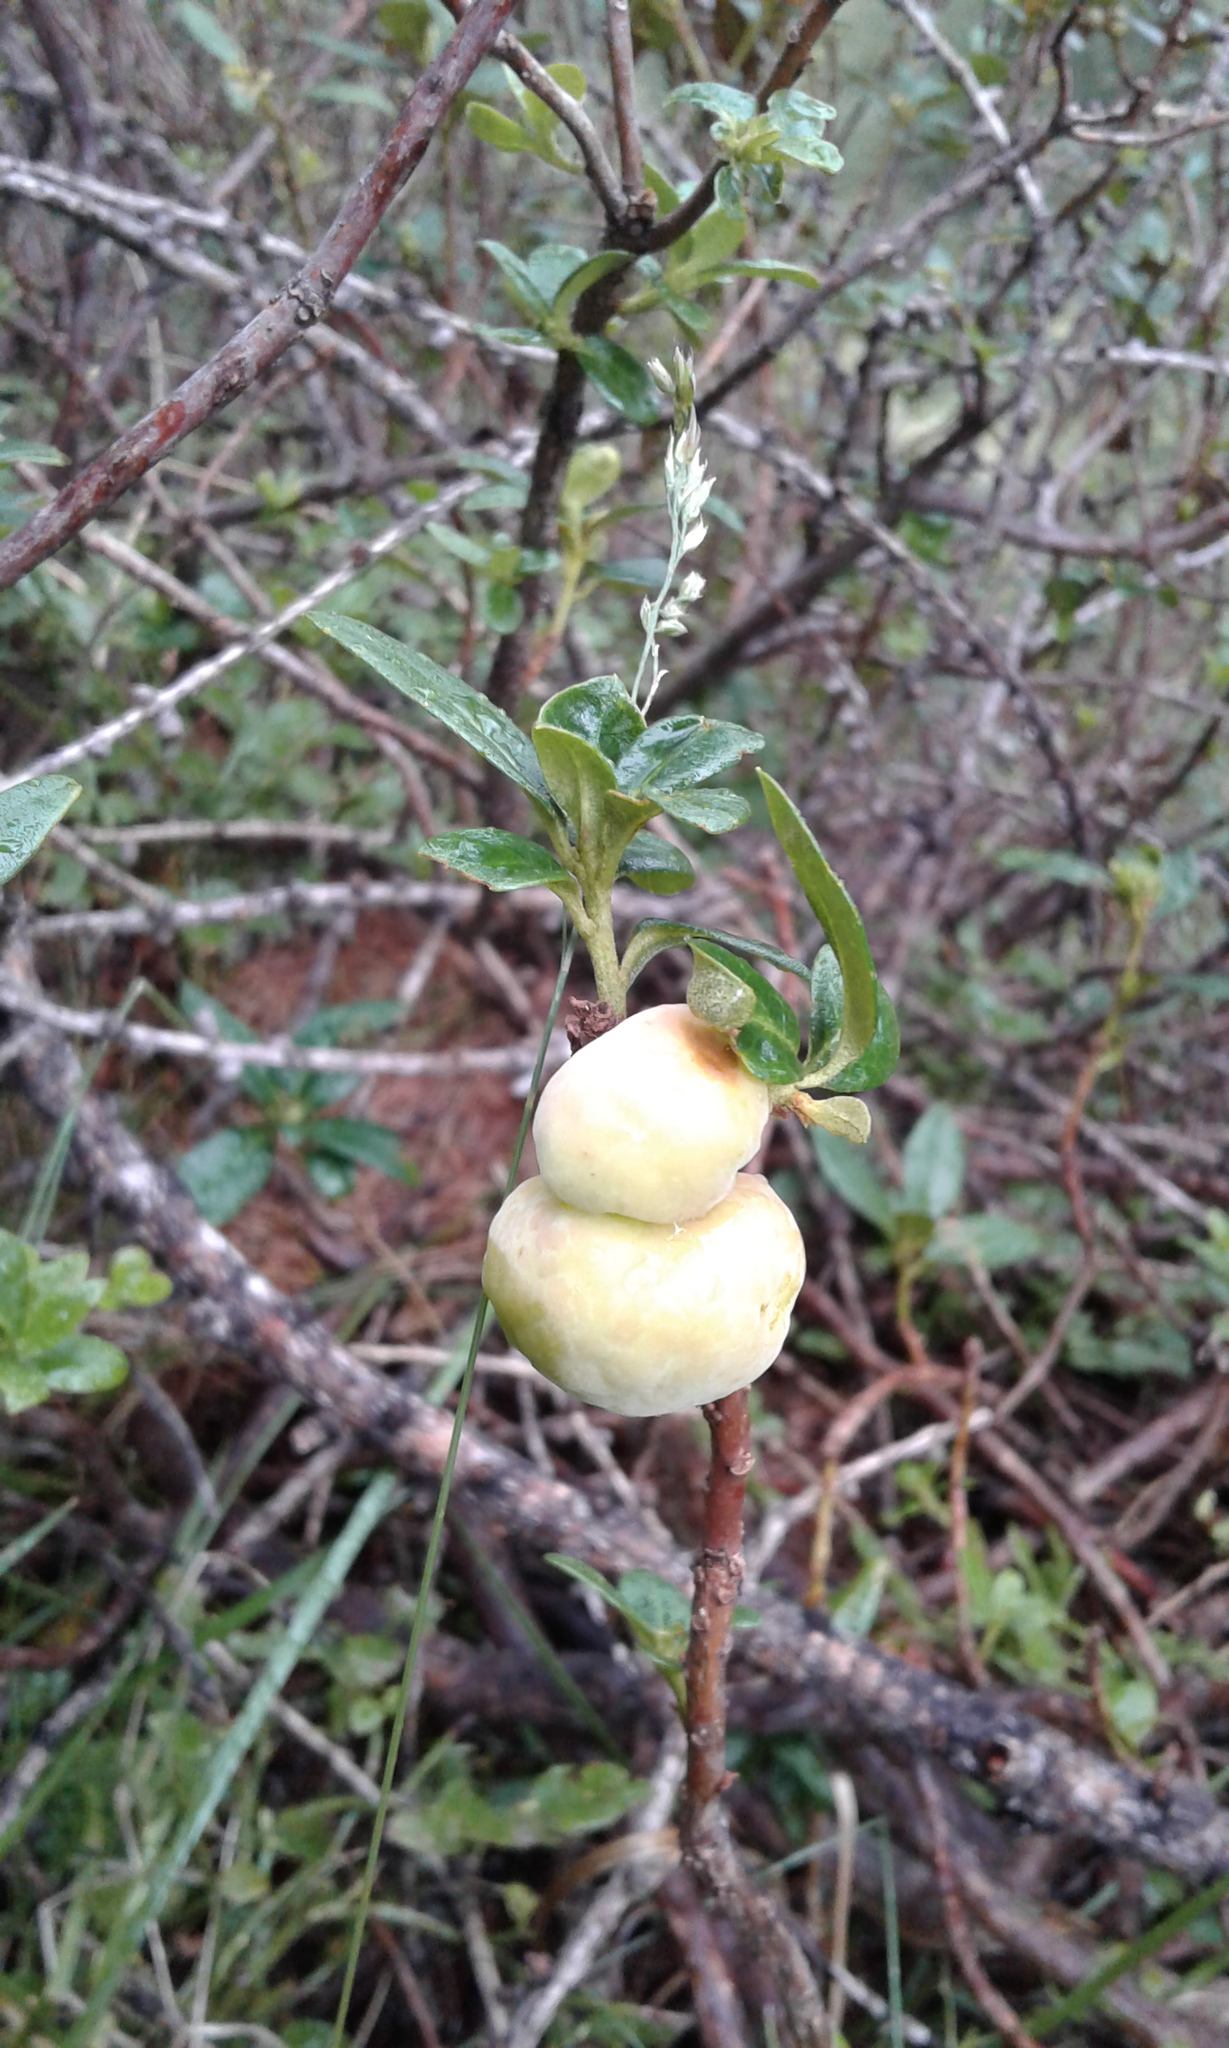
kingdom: Fungi
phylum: Basidiomycota
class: Exobasidiomycetes
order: Exobasidiales
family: Exobasidiaceae
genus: Exobasidium
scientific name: Exobasidium rhododendri
